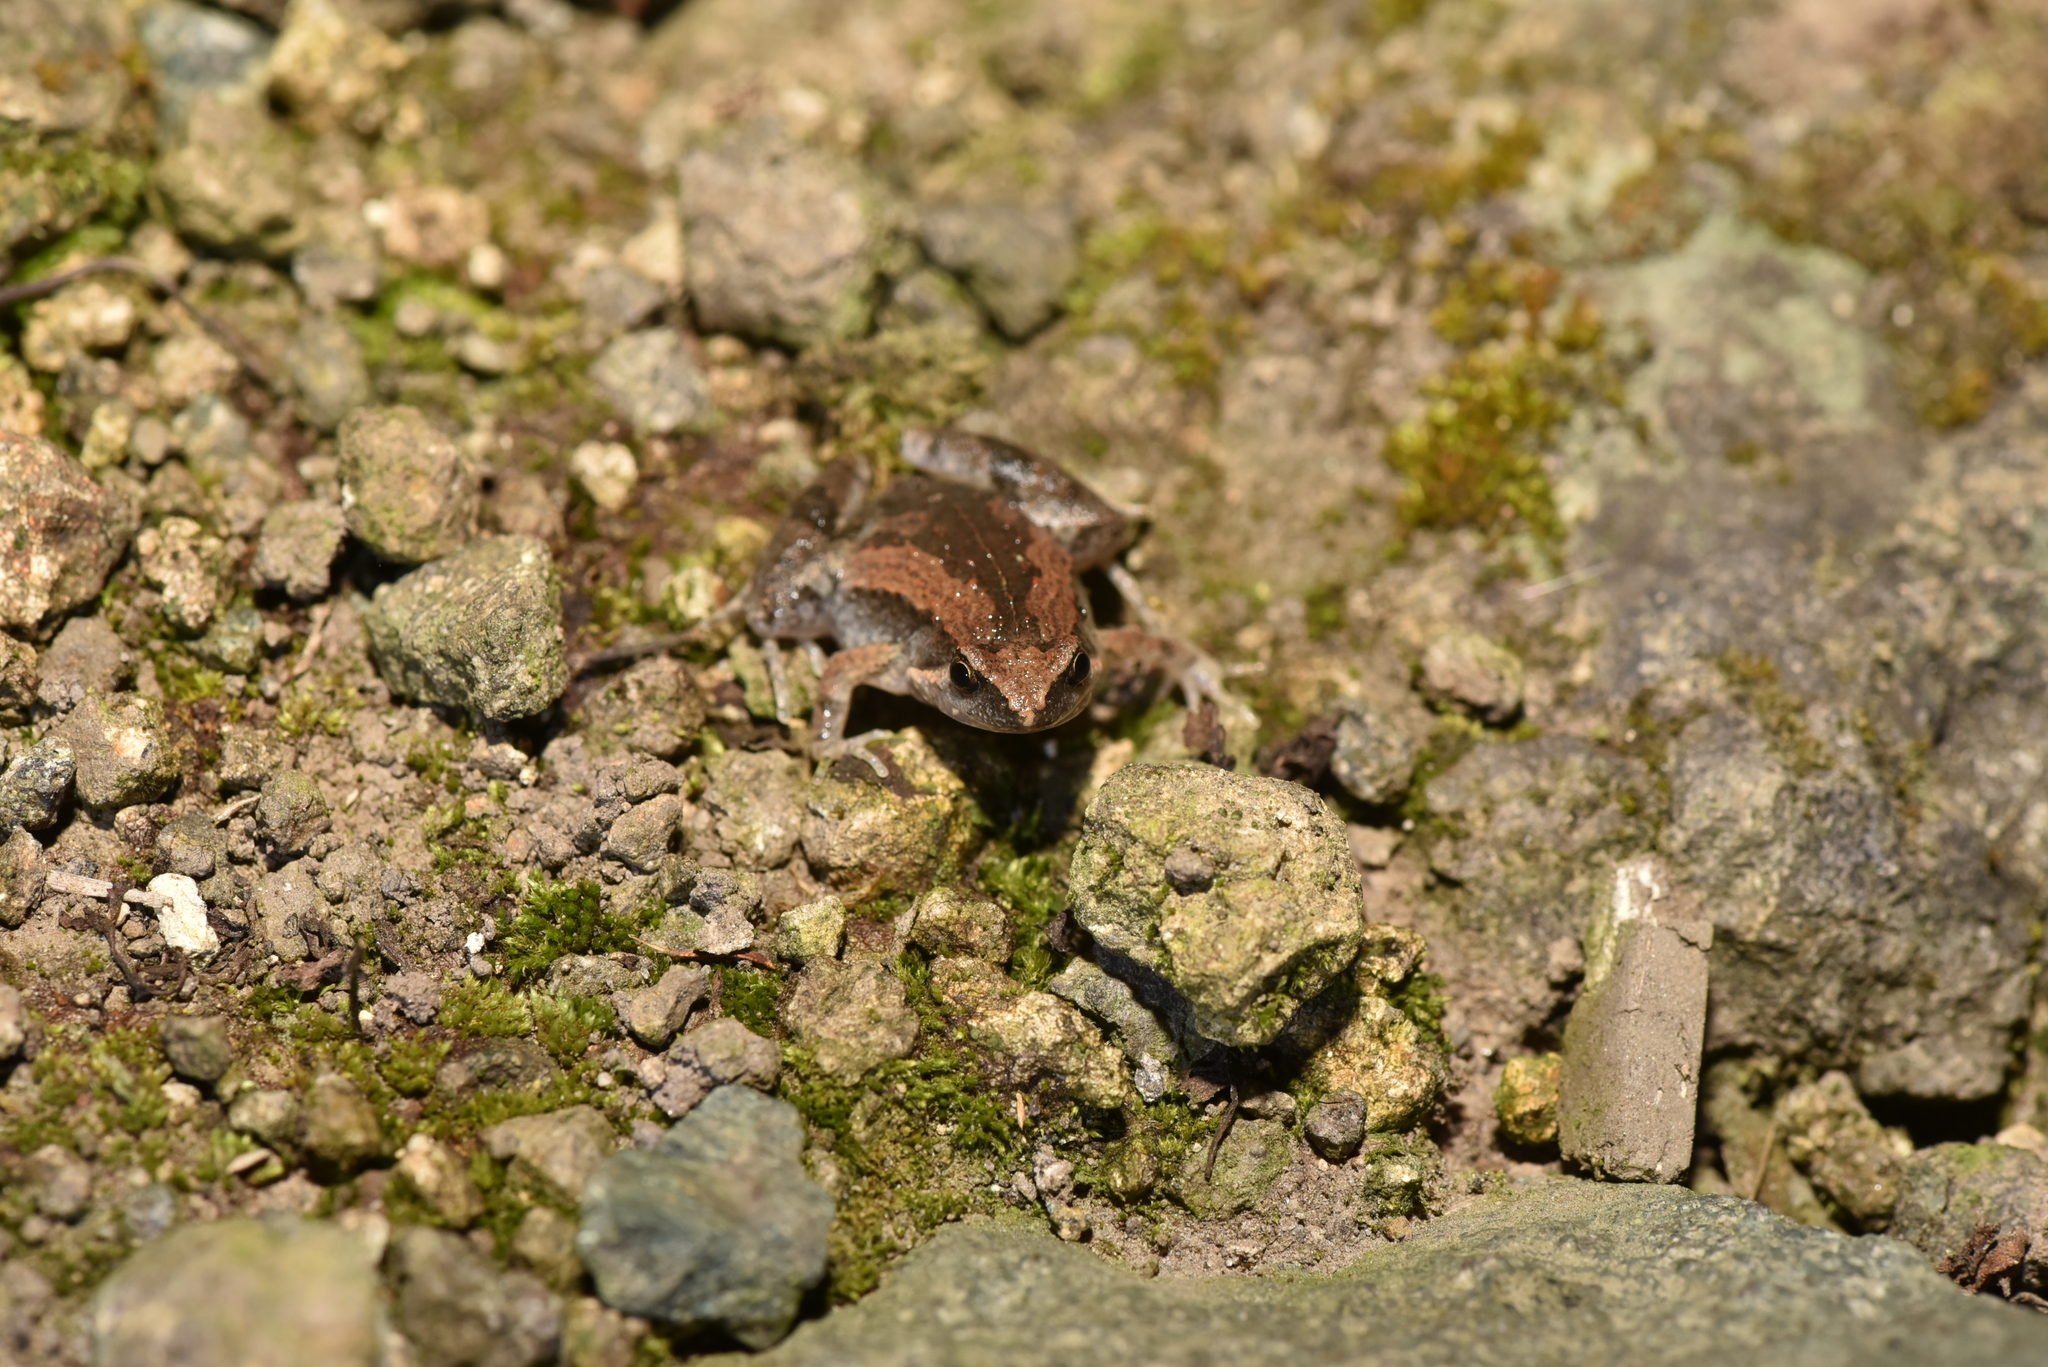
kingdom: Animalia
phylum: Chordata
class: Amphibia
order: Anura
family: Microhylidae
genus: Microhyla
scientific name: Microhyla fissipes
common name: Ornate narrow-mouthed frog
